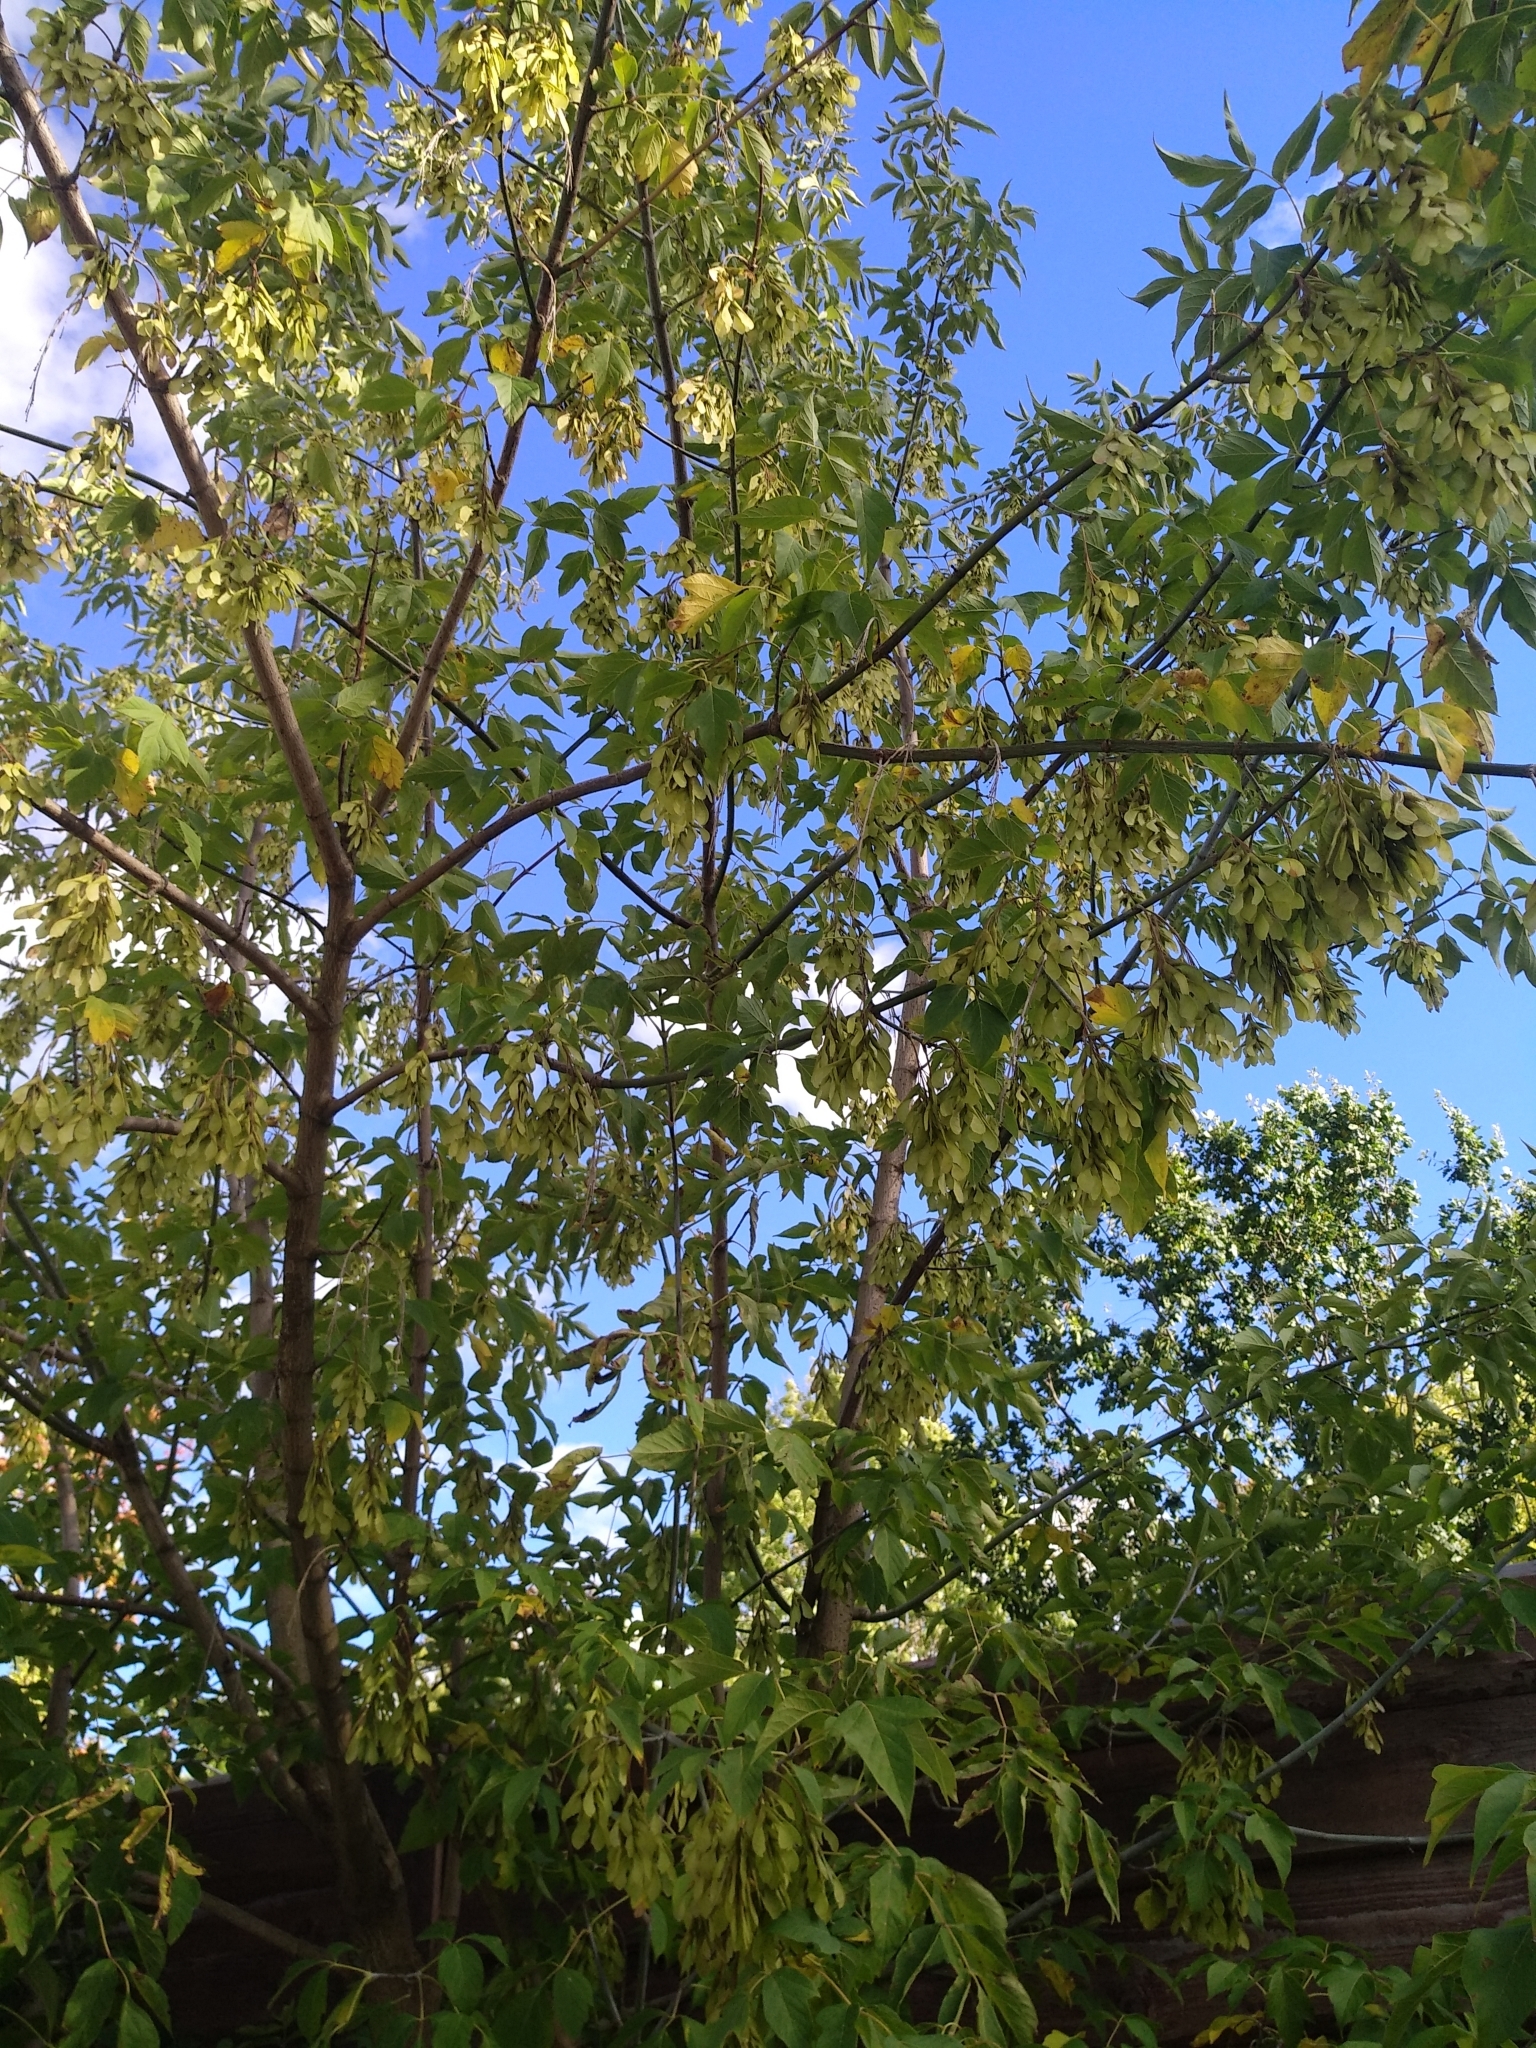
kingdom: Plantae
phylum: Tracheophyta
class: Magnoliopsida
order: Sapindales
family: Sapindaceae
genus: Acer
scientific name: Acer negundo
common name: Ashleaf maple
